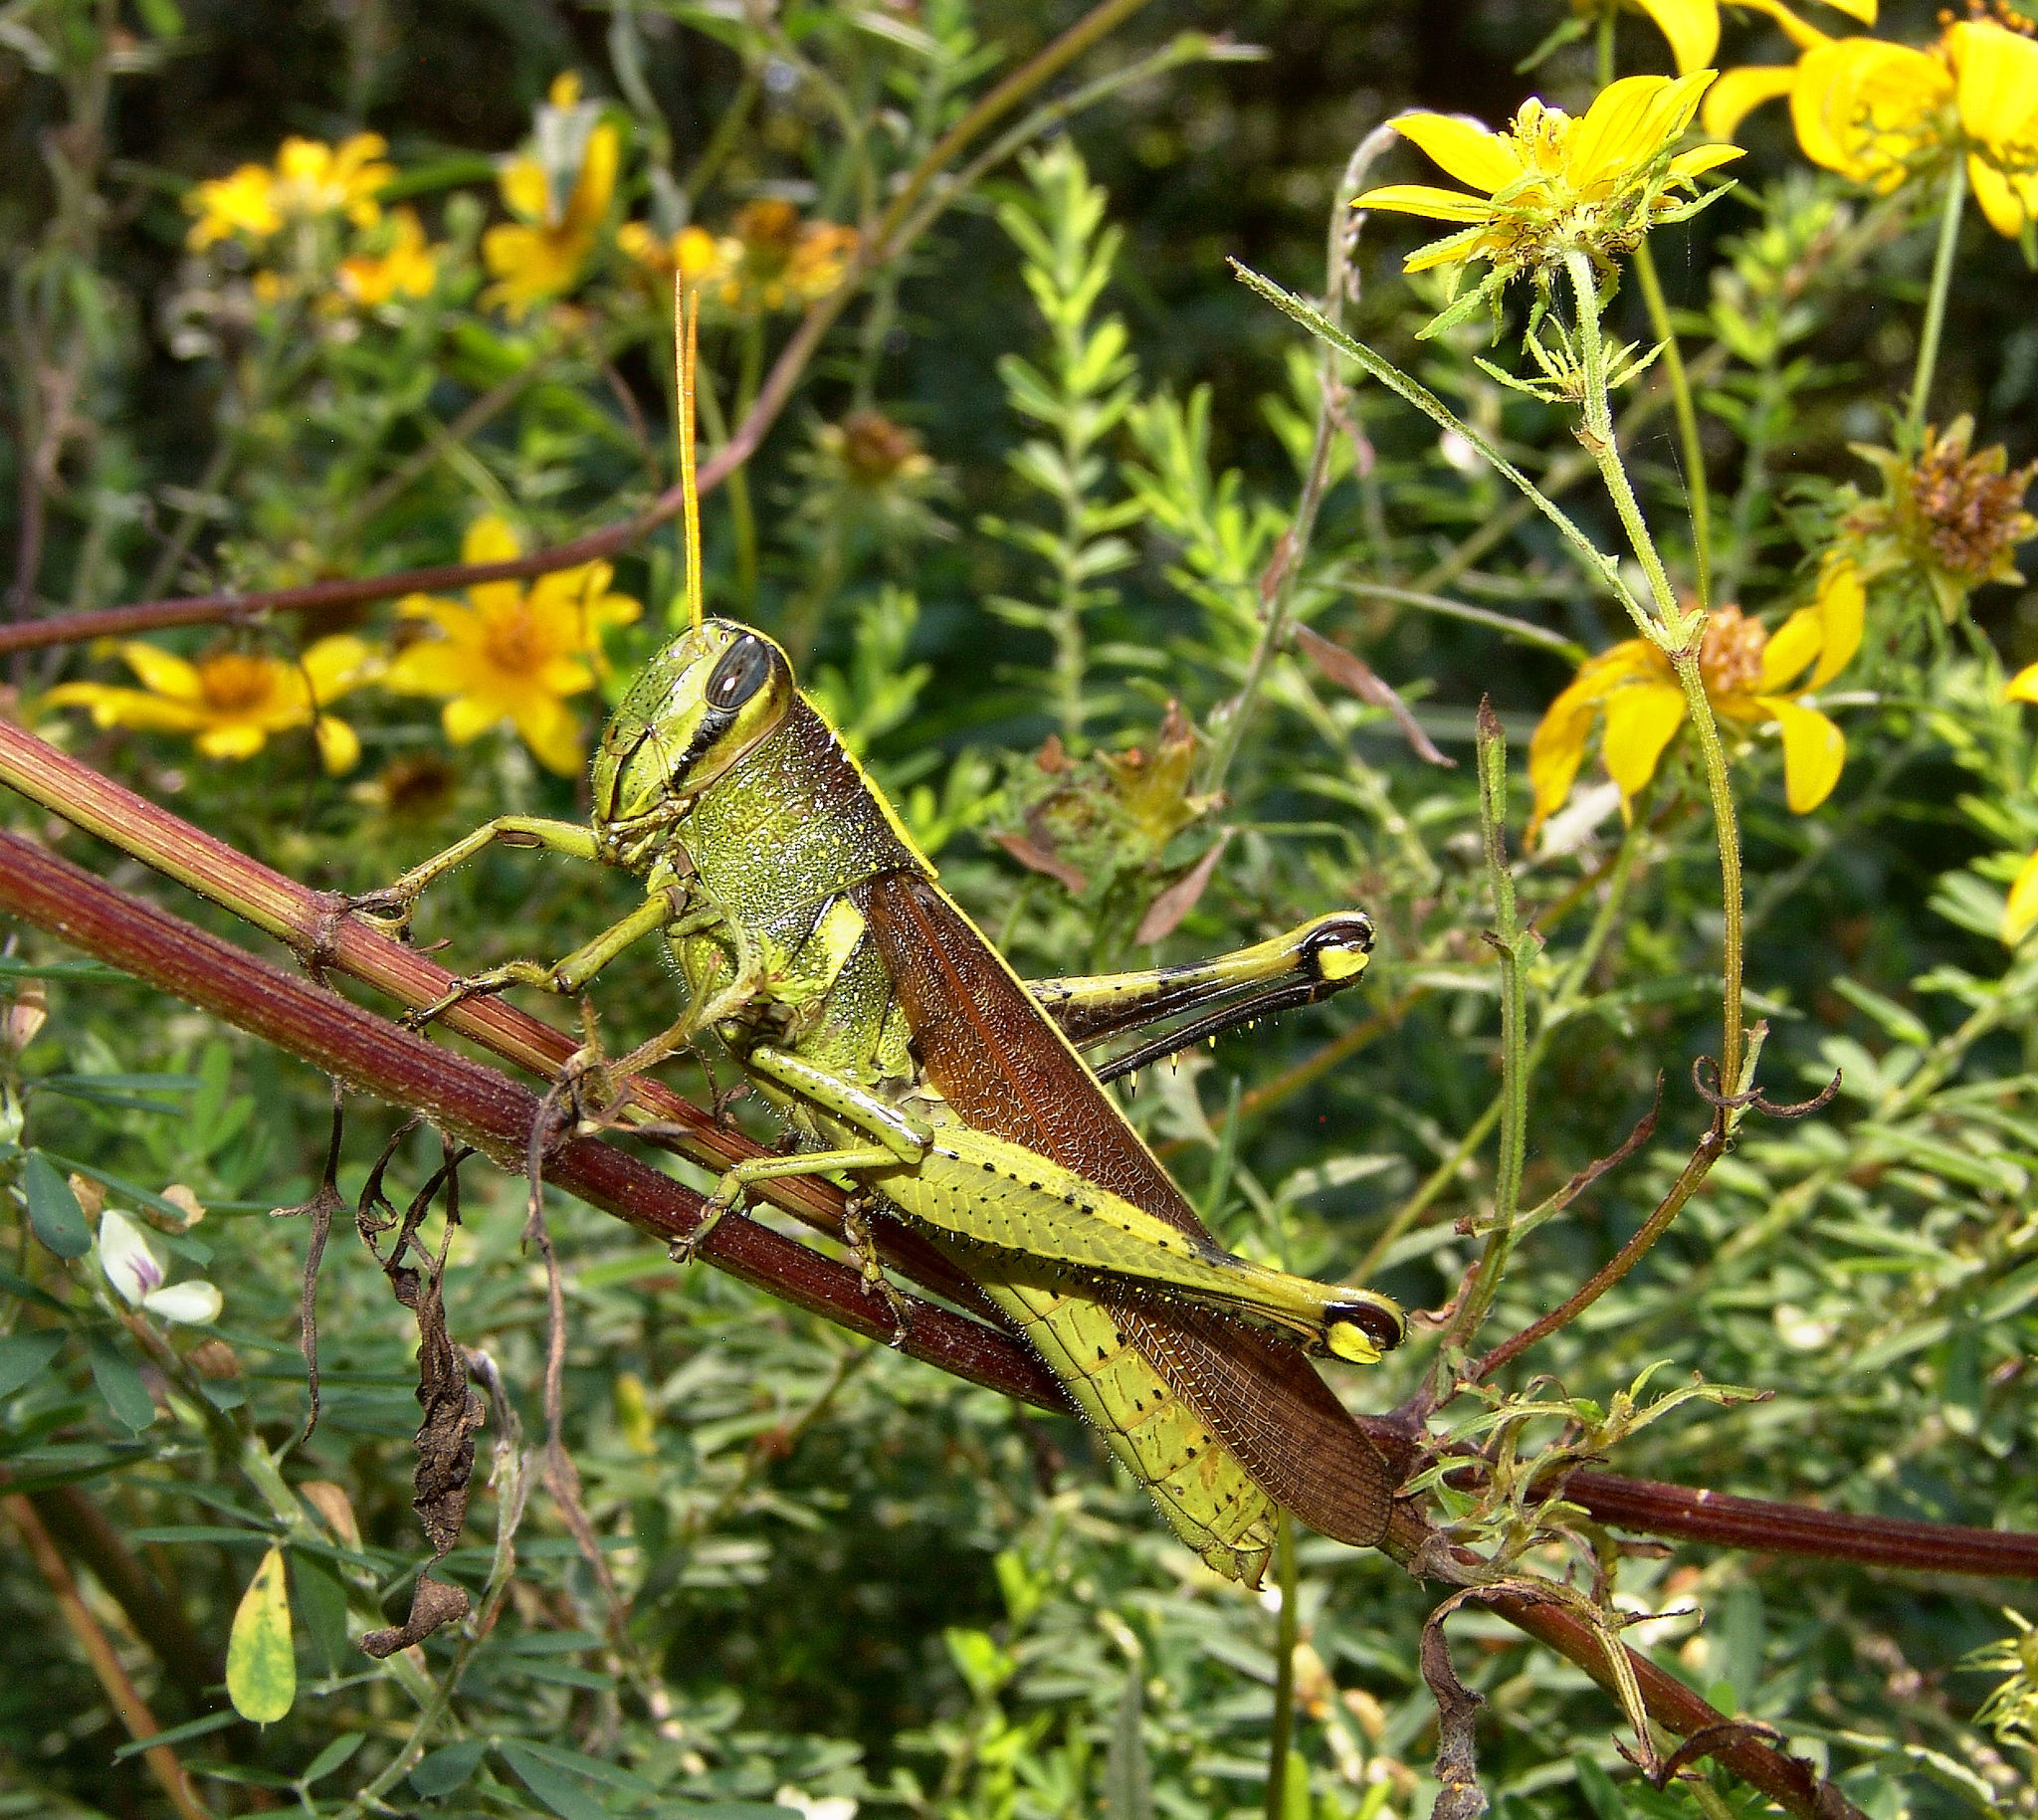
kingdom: Animalia
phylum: Arthropoda
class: Insecta
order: Orthoptera
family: Acrididae
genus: Schistocerca
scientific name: Schistocerca obscura
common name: Obscure bird grasshopper
